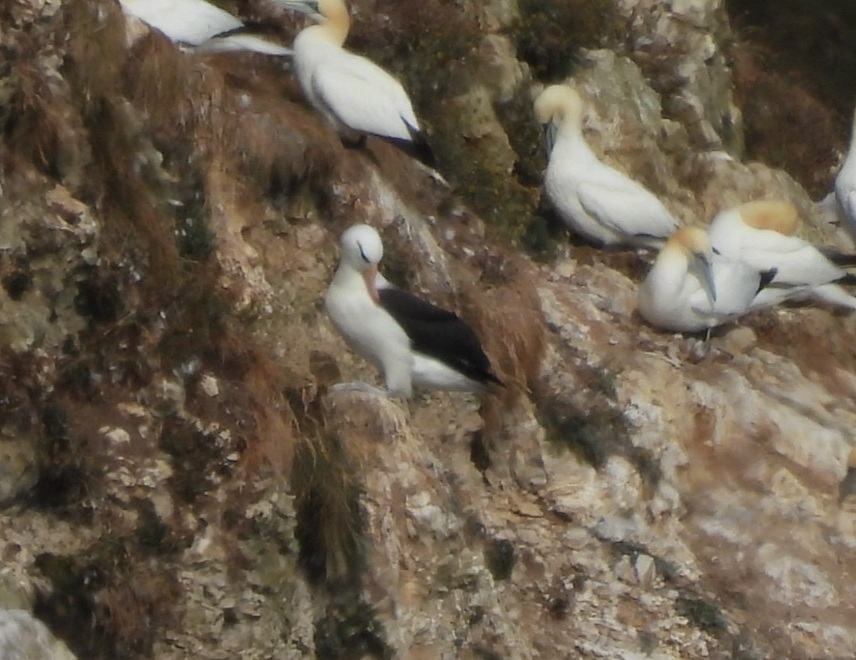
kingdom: Animalia
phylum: Chordata
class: Aves
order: Procellariiformes
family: Diomedeidae
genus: Thalassarche
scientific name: Thalassarche melanophris
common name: Black-browed albatross
